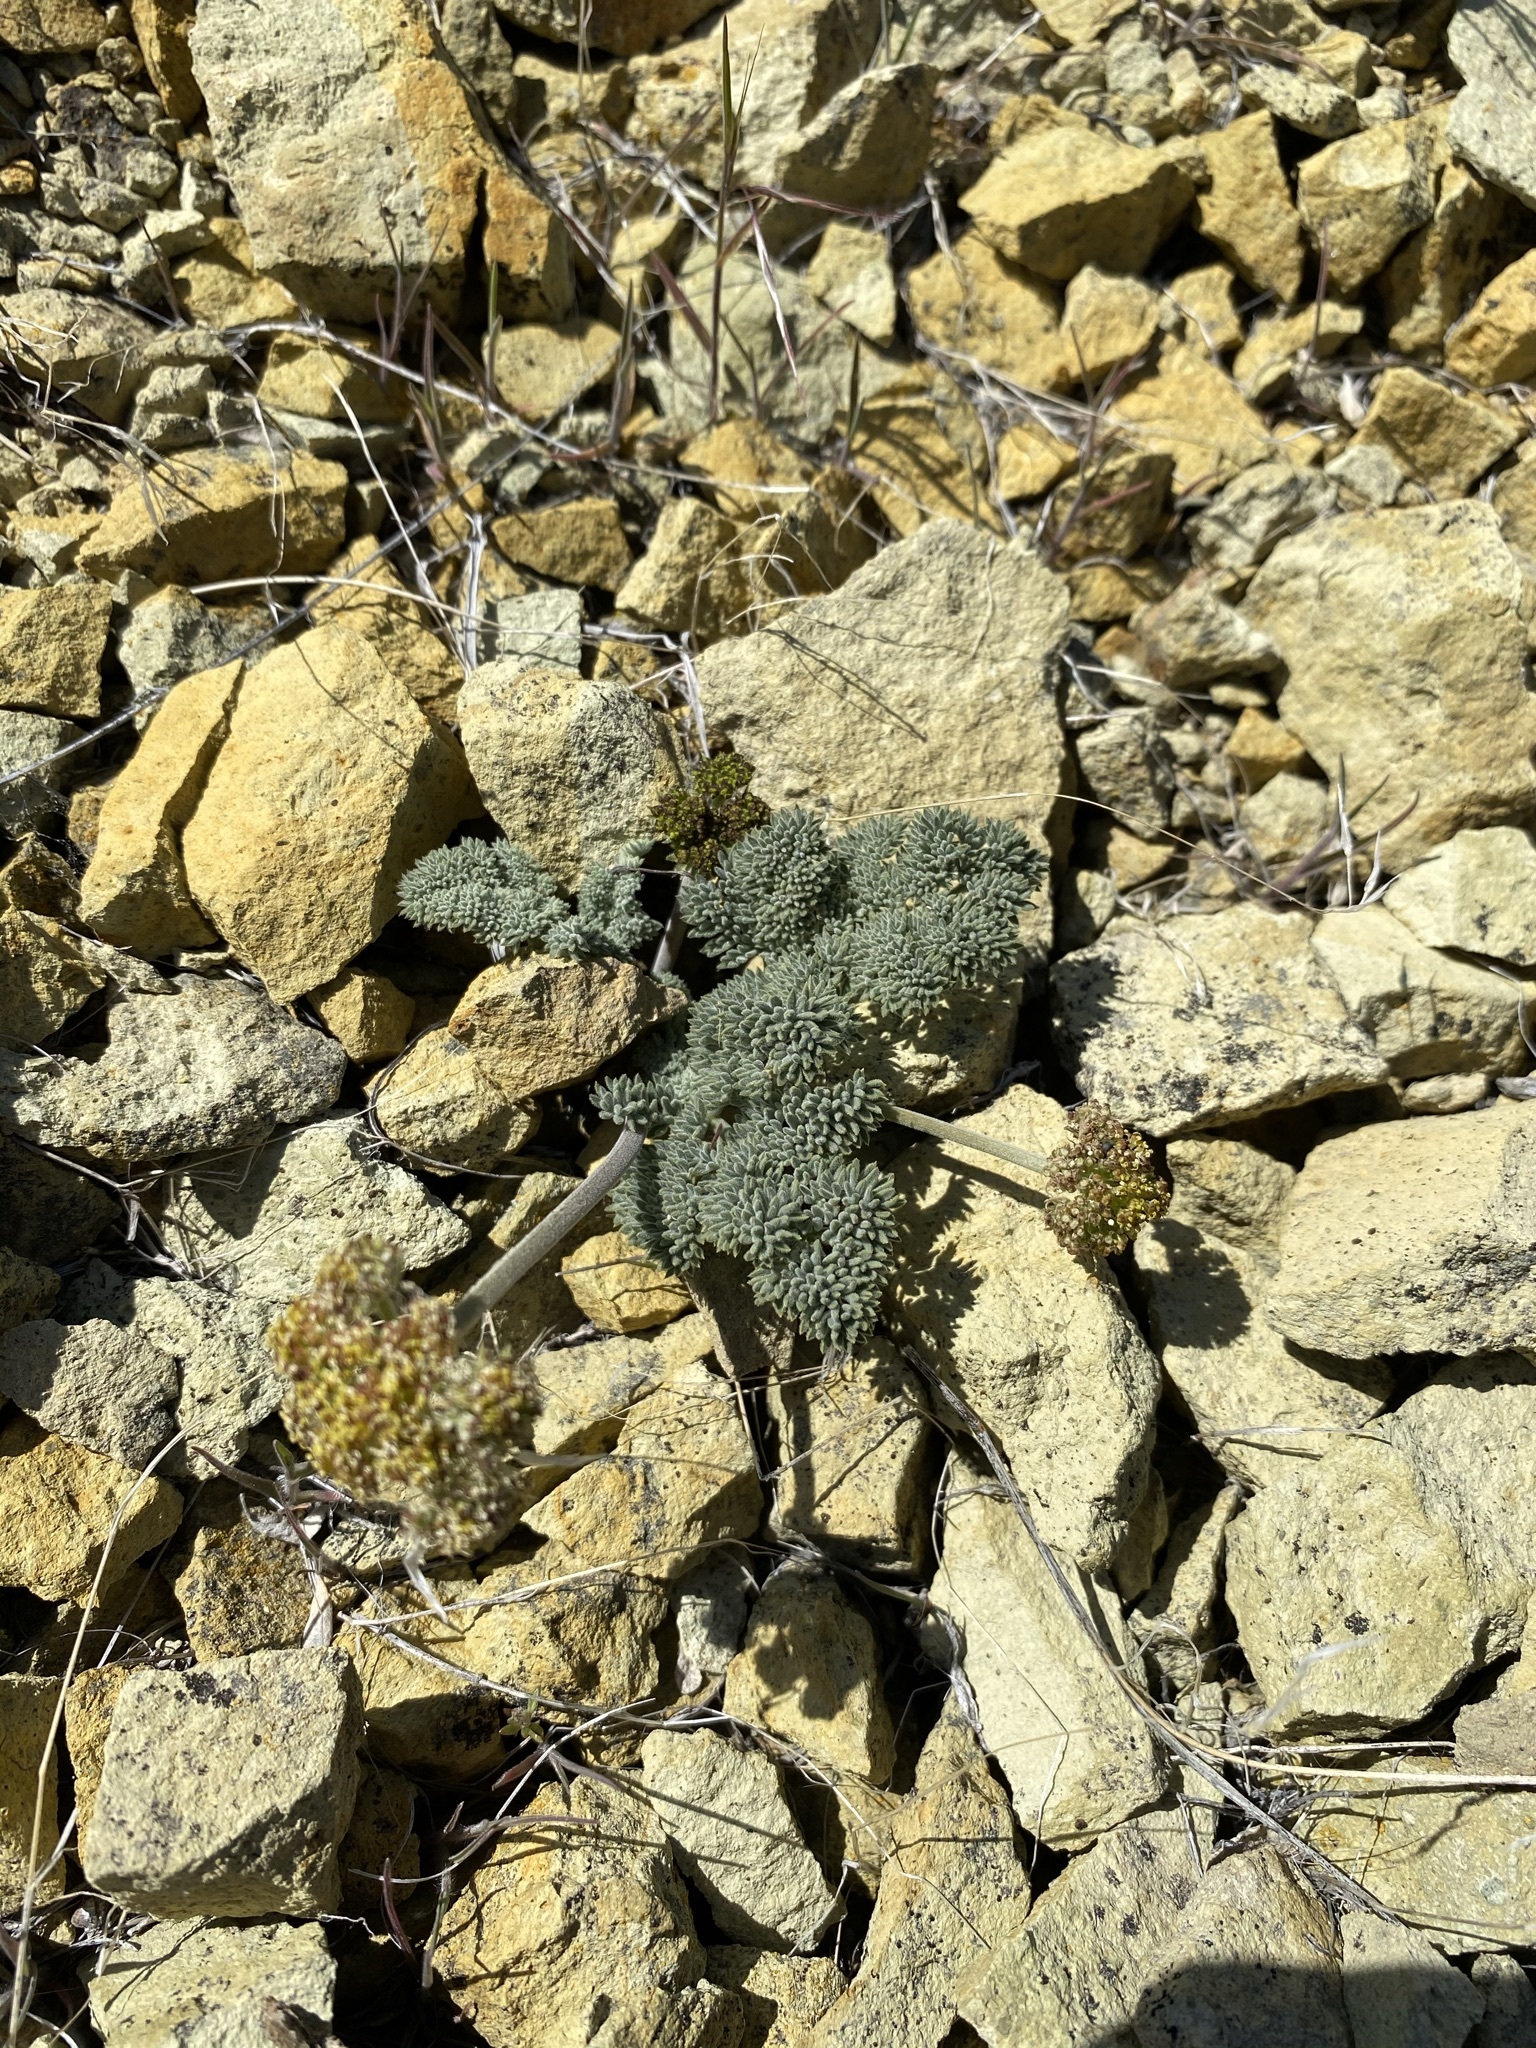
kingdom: Plantae
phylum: Tracheophyta
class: Magnoliopsida
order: Apiales
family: Apiaceae
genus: Lomatium
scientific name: Lomatium foeniculaceum
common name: Desert-parsley
